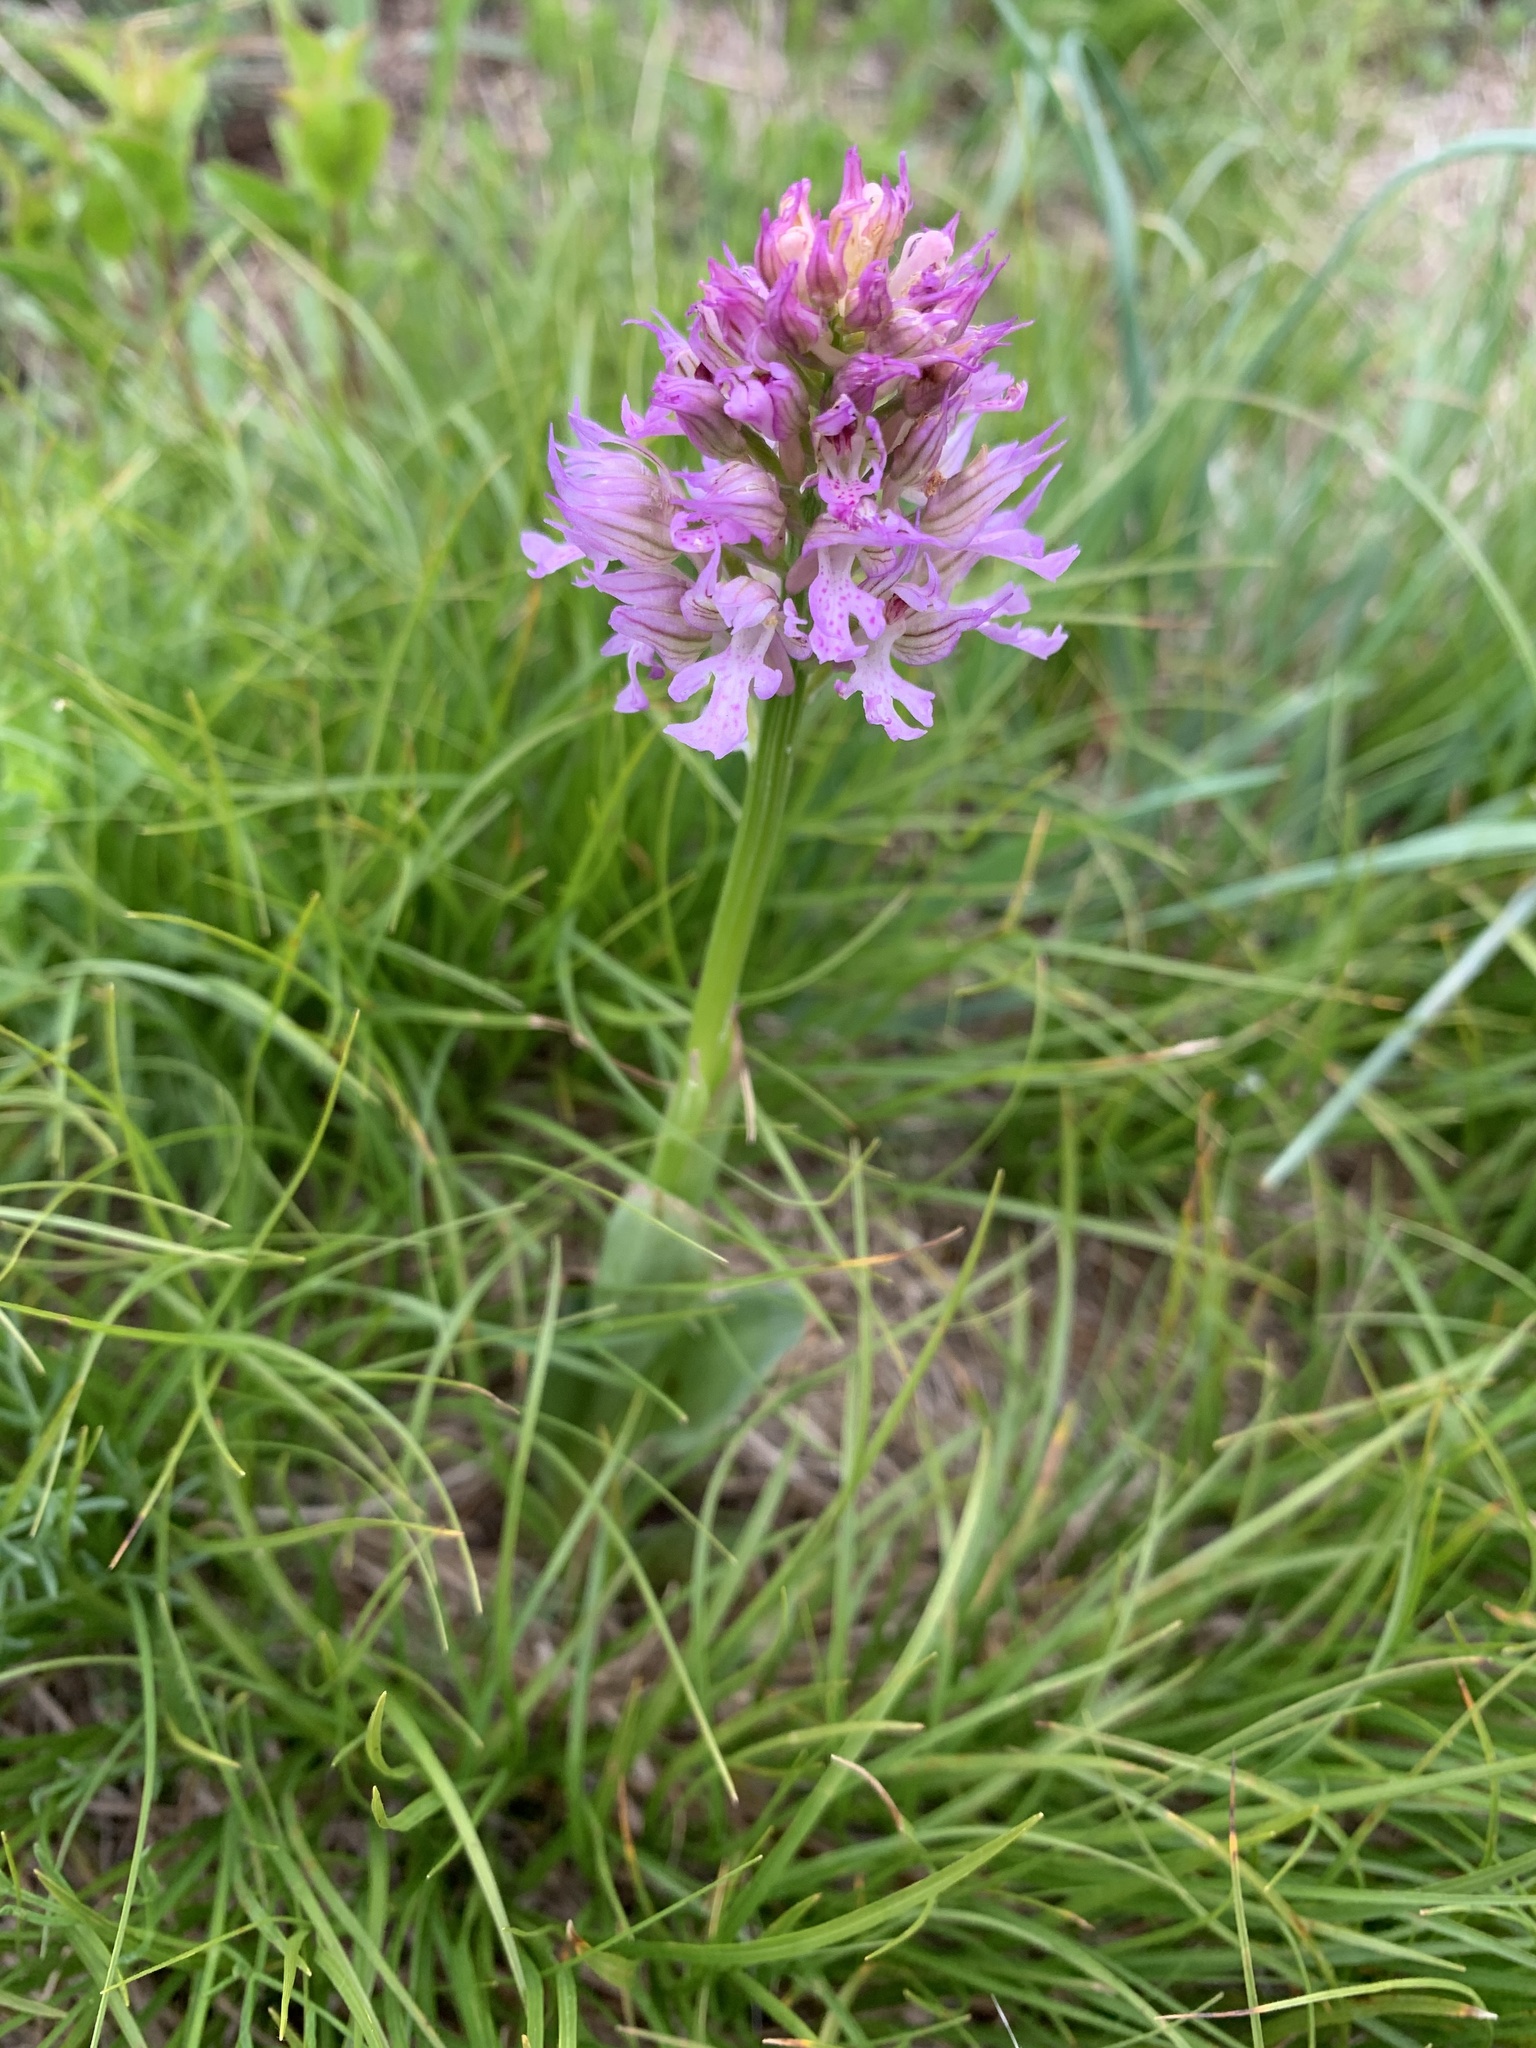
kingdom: Plantae
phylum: Tracheophyta
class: Liliopsida
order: Asparagales
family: Orchidaceae
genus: Neotinea
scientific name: Neotinea tridentata
